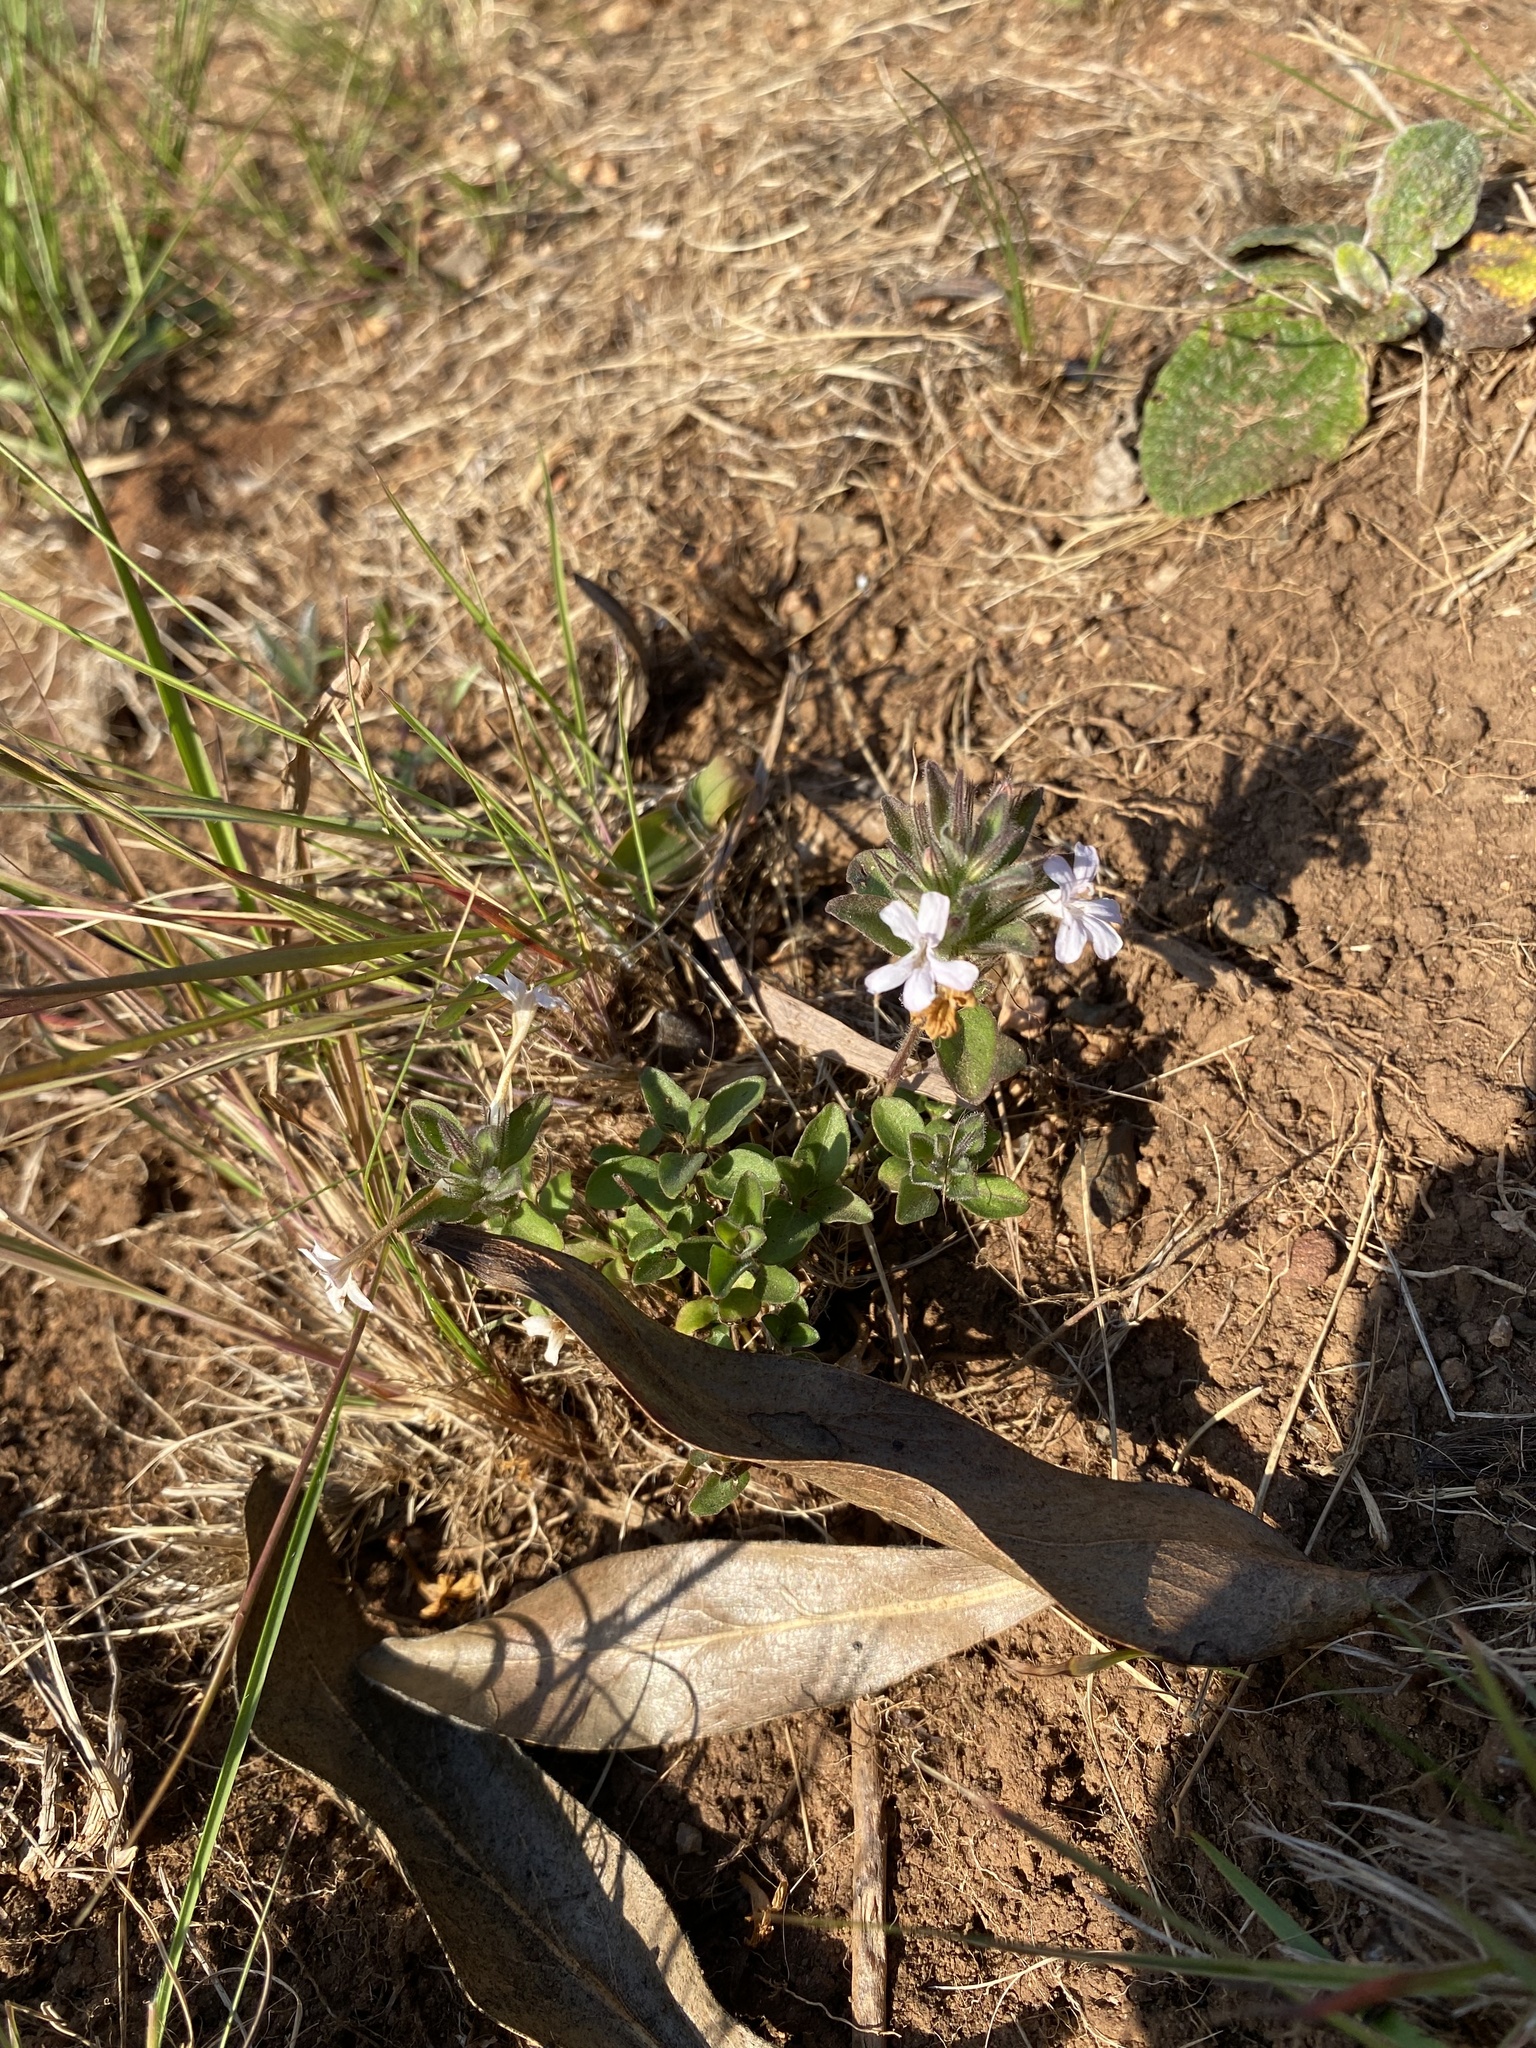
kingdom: Plantae
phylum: Tracheophyta
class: Magnoliopsida
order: Lamiales
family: Acanthaceae
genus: Dyschoriste
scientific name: Dyschoriste setigera
